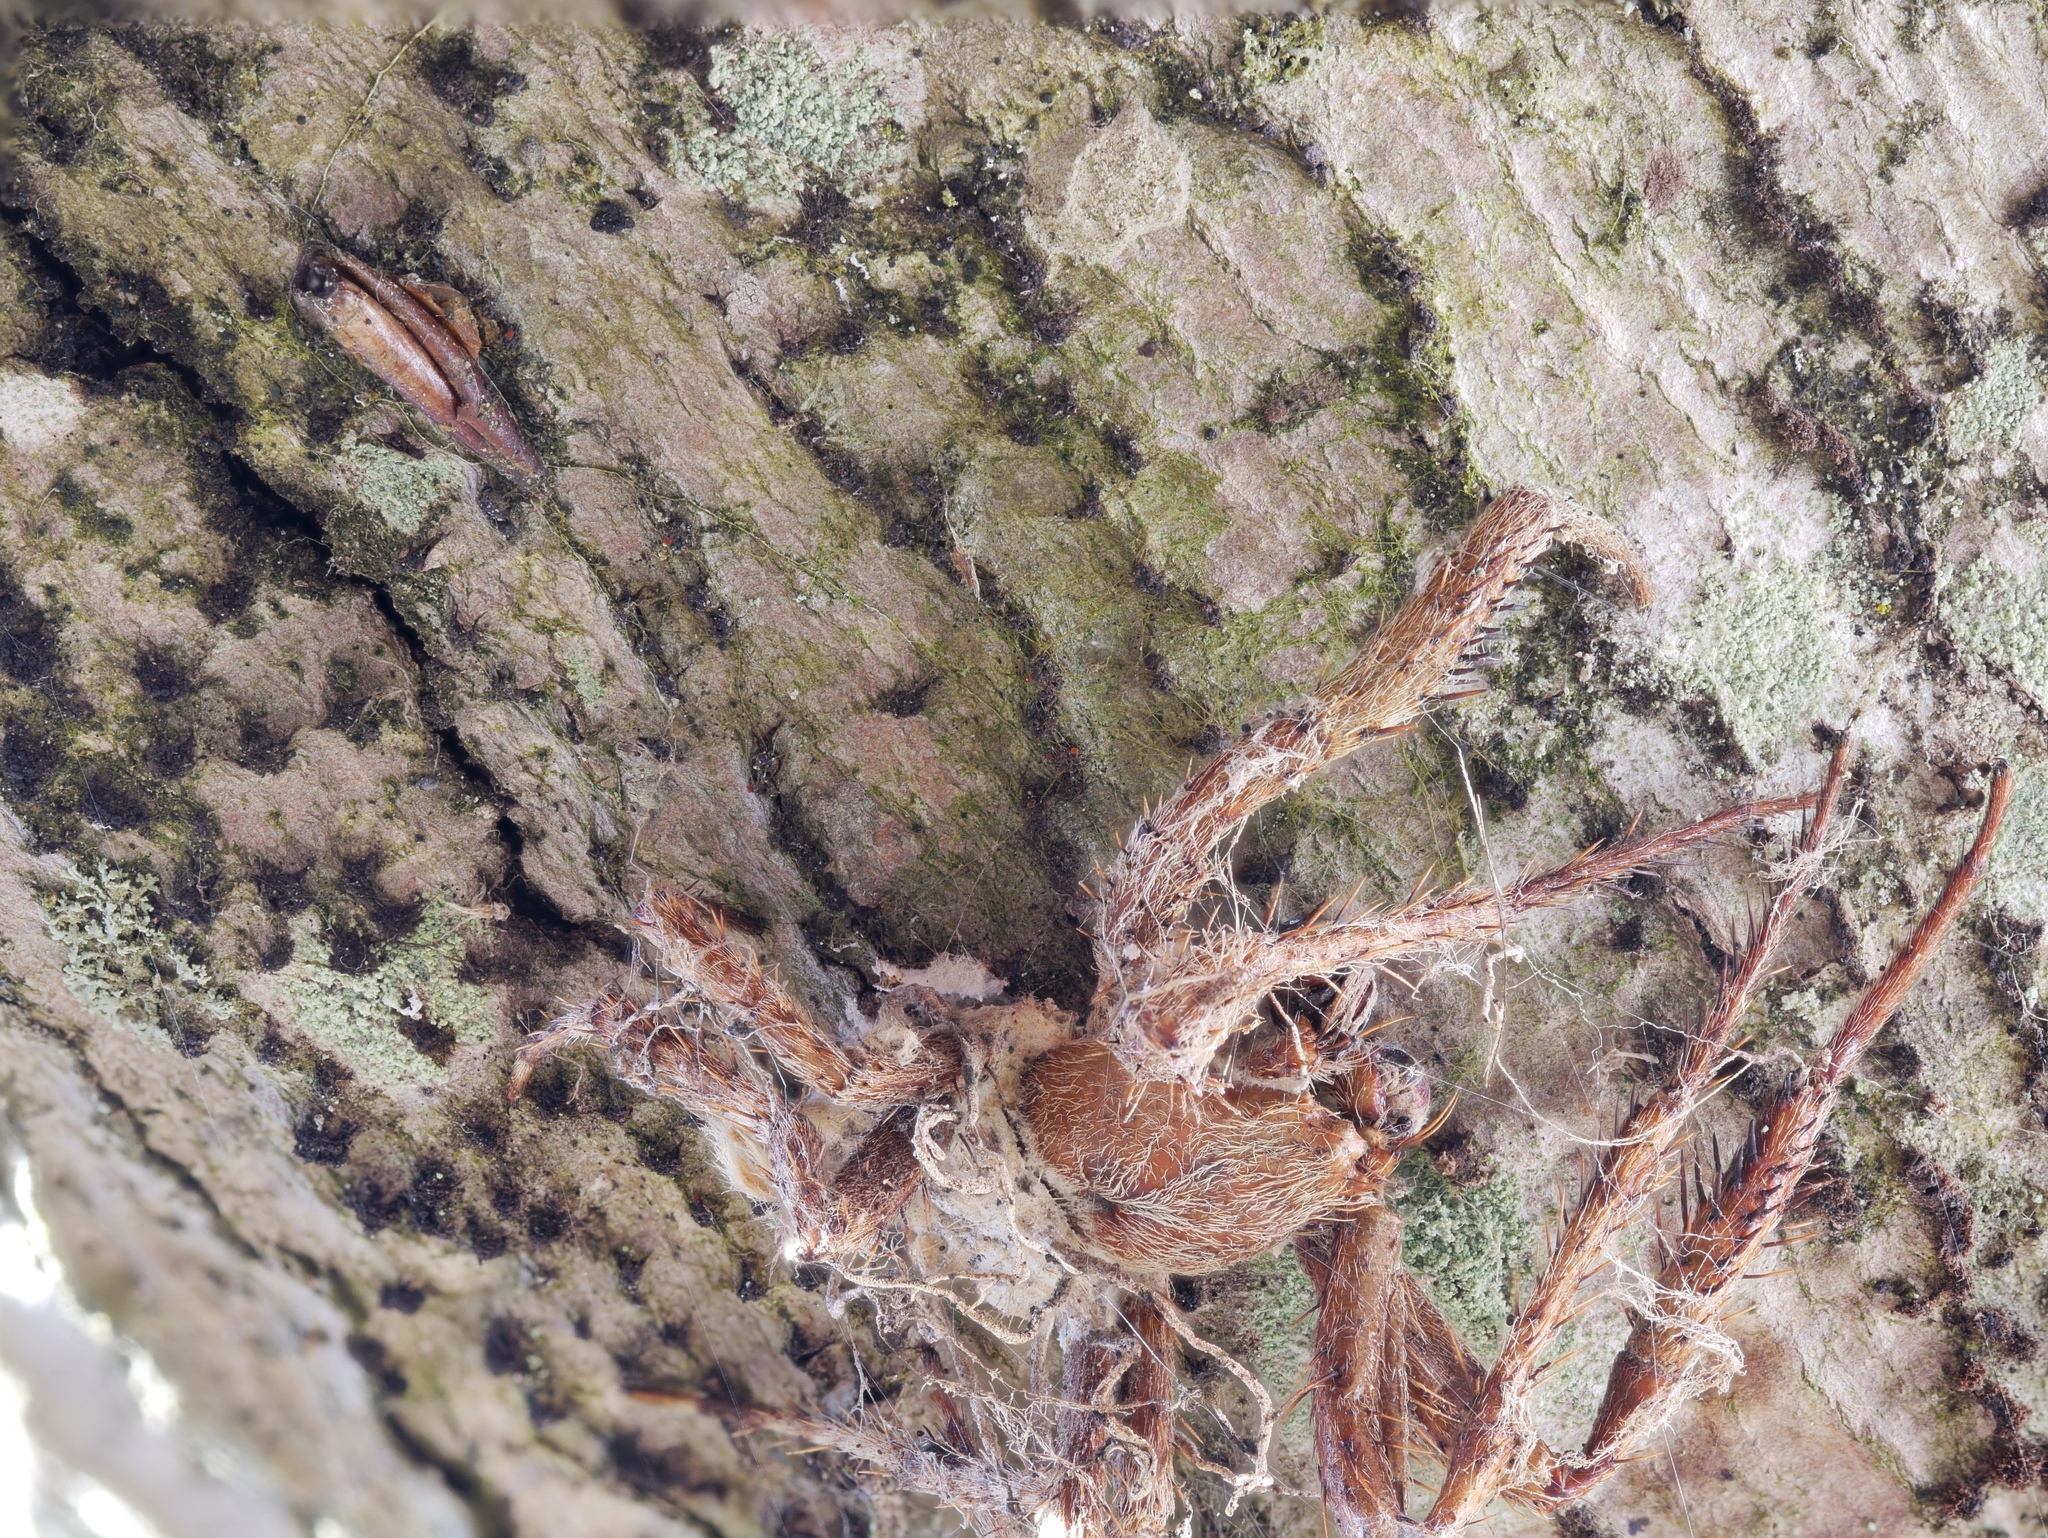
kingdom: Fungi
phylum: Ascomycota
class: Dothideomycetes
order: Mycosphaerellales
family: Teratosphaeriaceae
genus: Acrodontium
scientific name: Acrodontium luzulae
